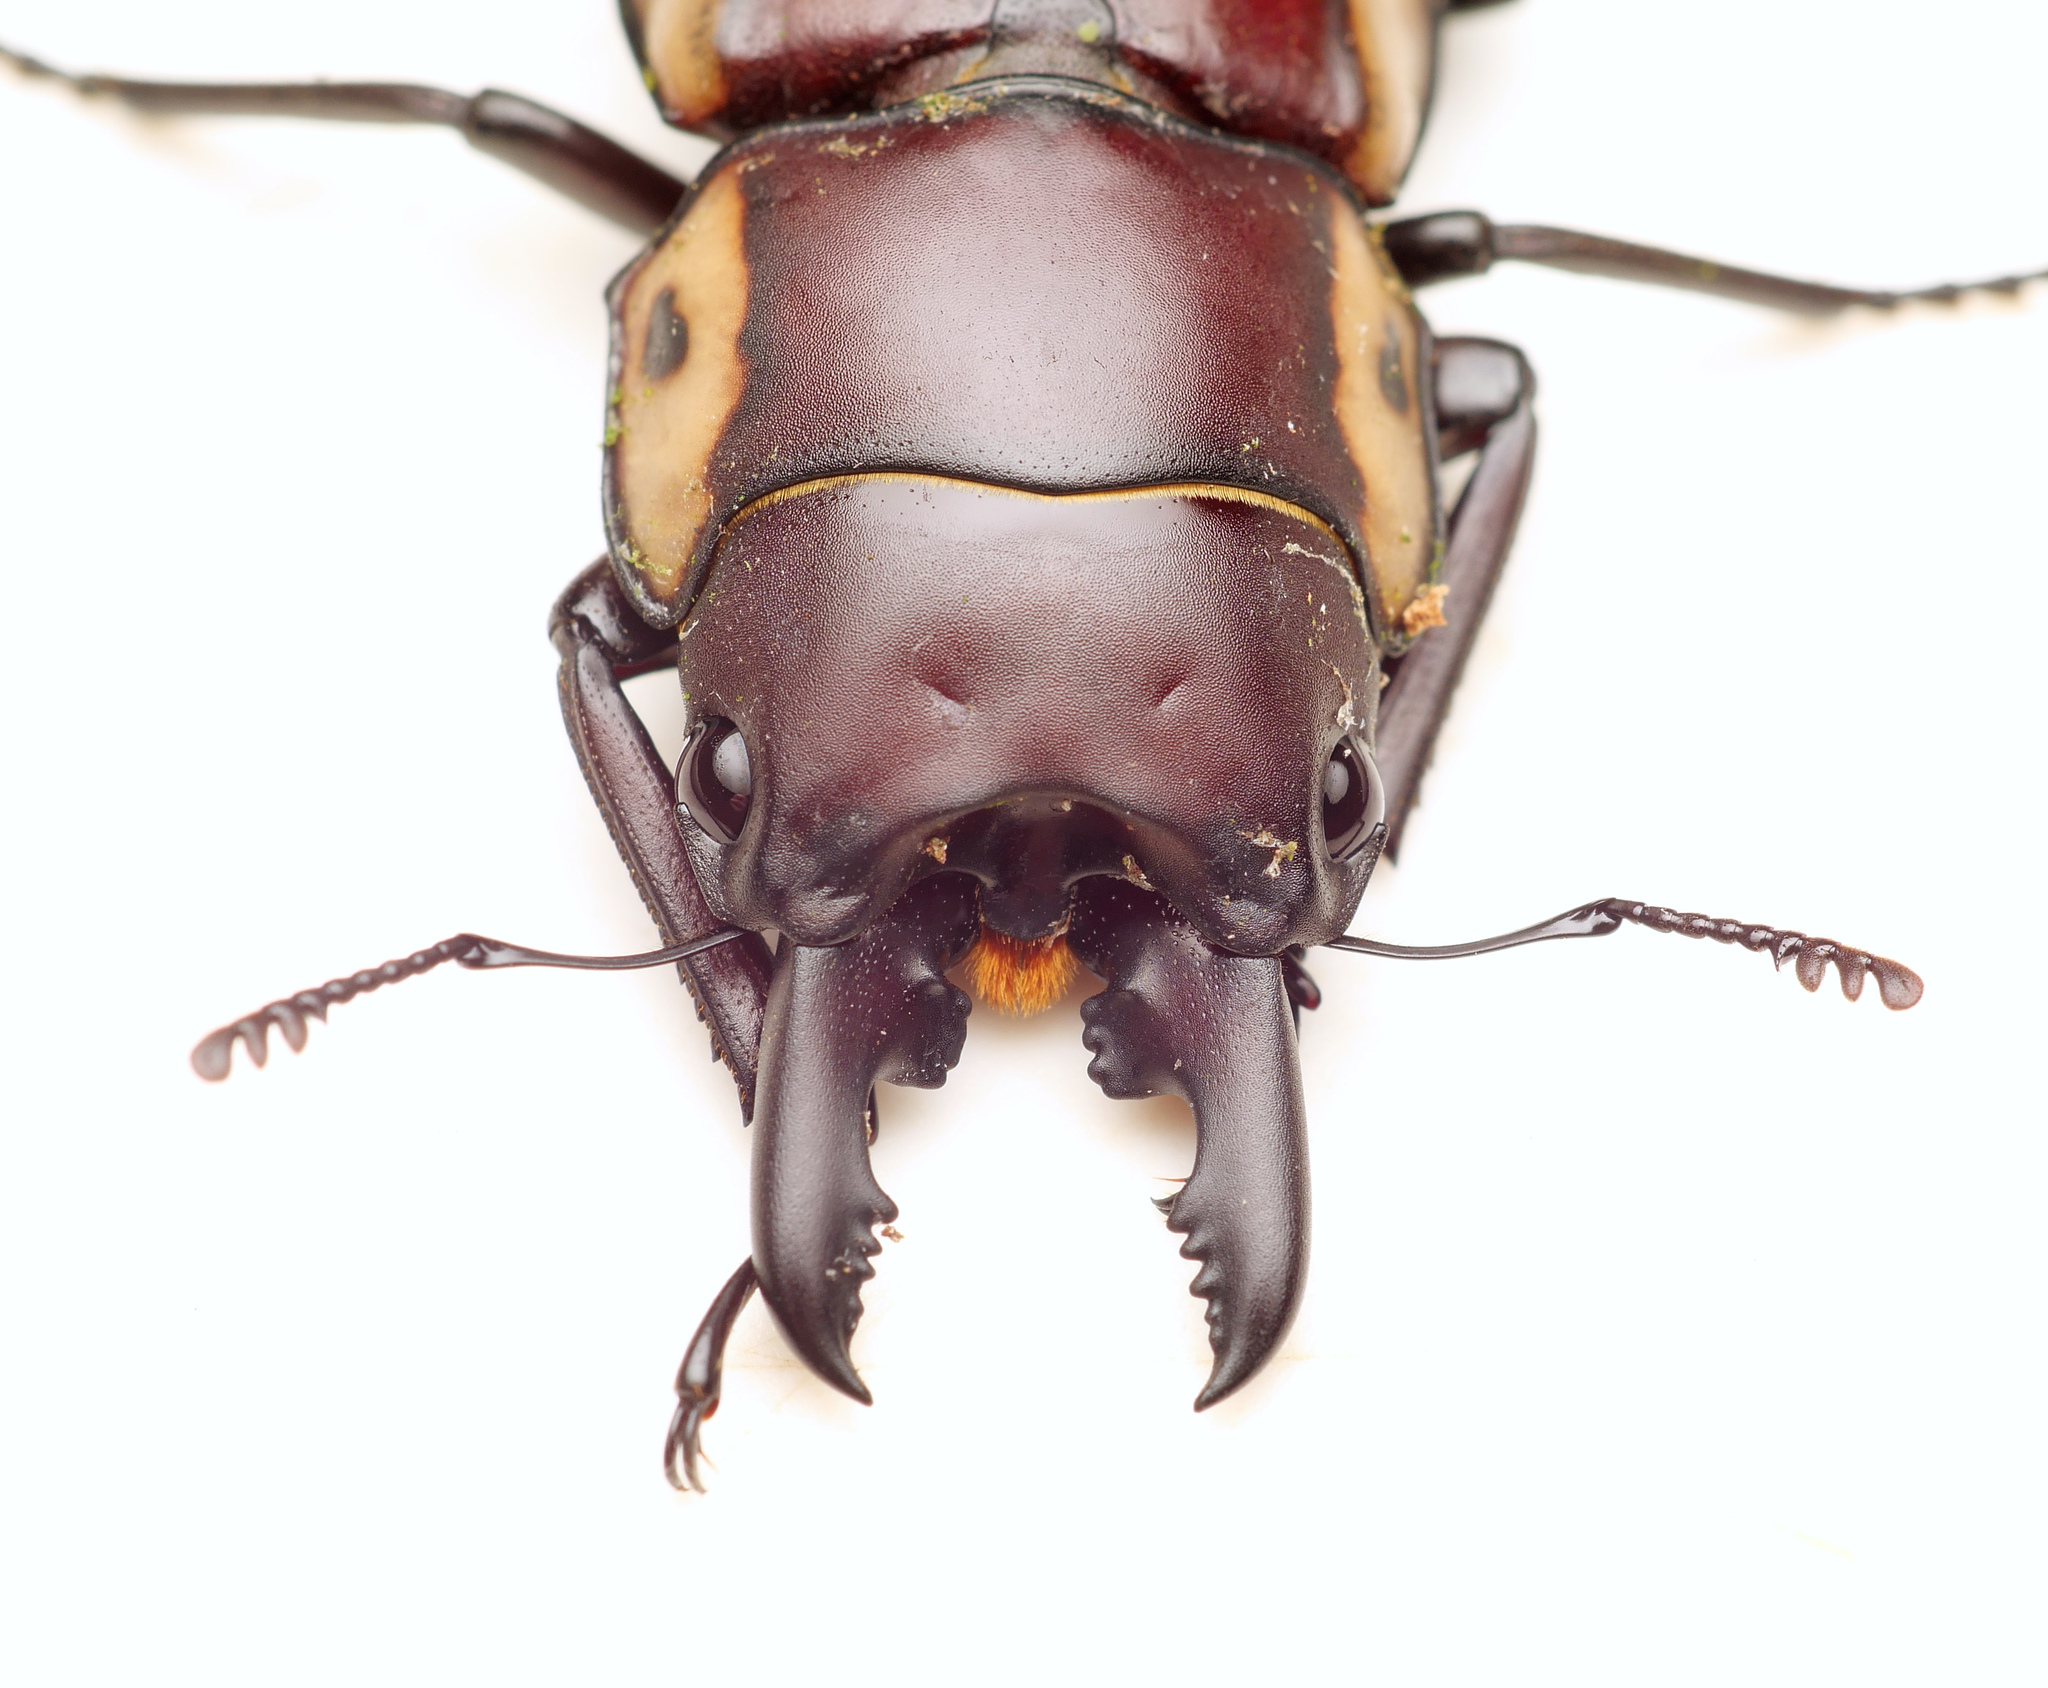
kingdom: Animalia
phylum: Arthropoda
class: Insecta
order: Coleoptera
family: Lucanidae
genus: Prosopocoilus
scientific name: Prosopocoilus bison
